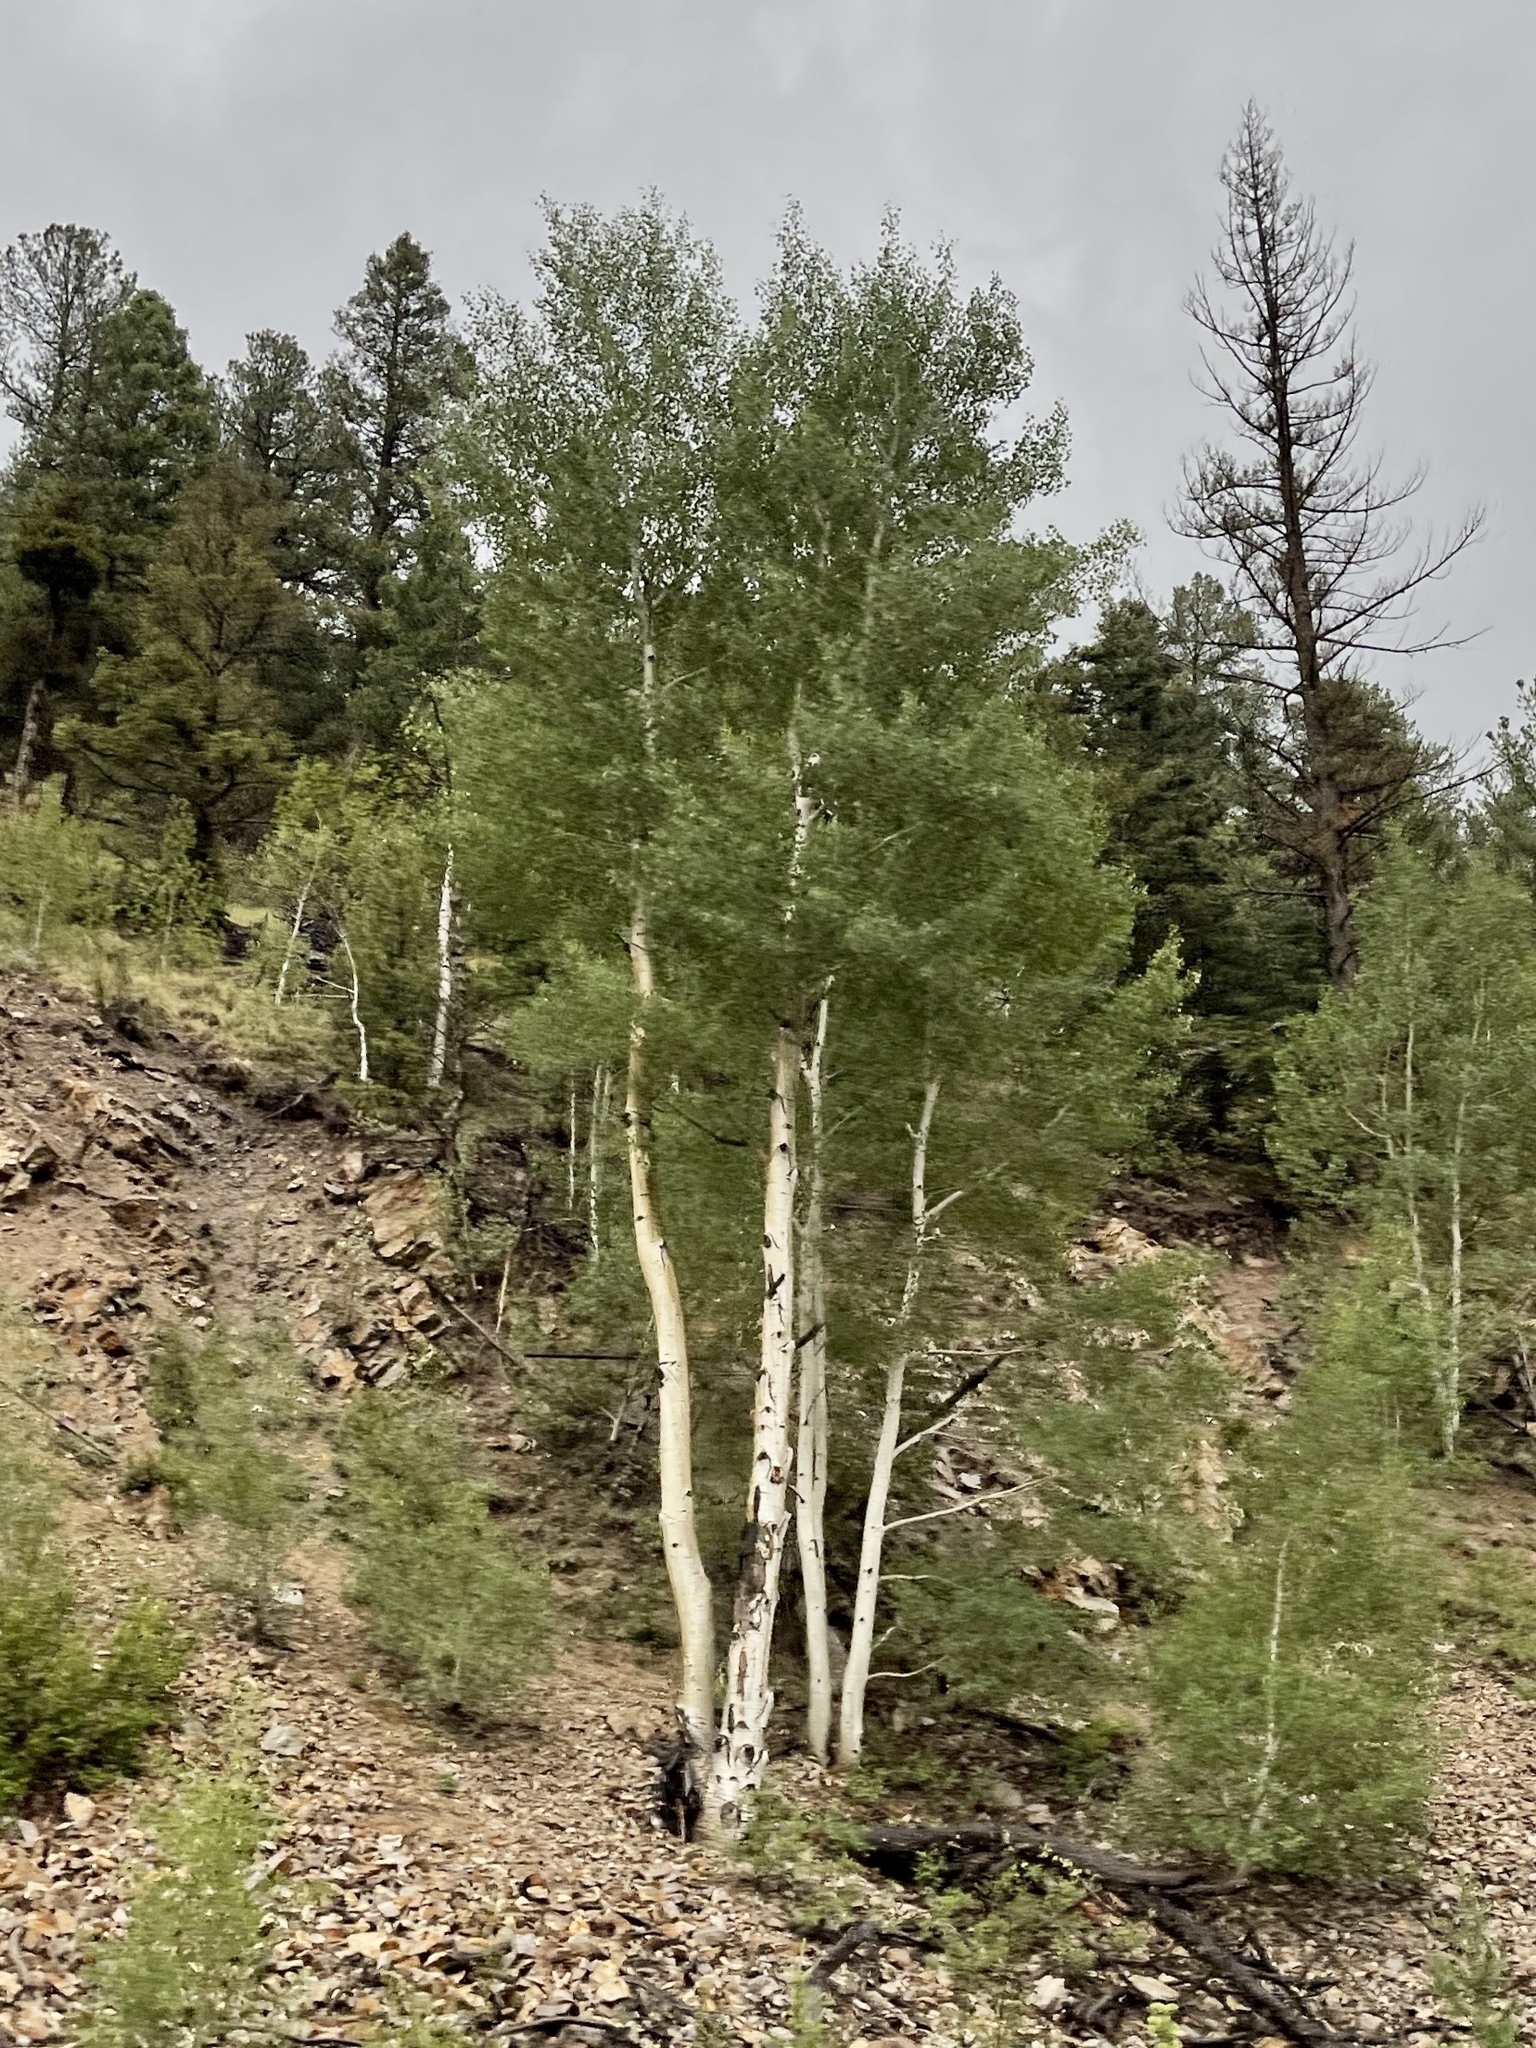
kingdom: Plantae
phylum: Tracheophyta
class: Magnoliopsida
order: Malpighiales
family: Salicaceae
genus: Populus
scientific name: Populus tremuloides
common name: Quaking aspen
